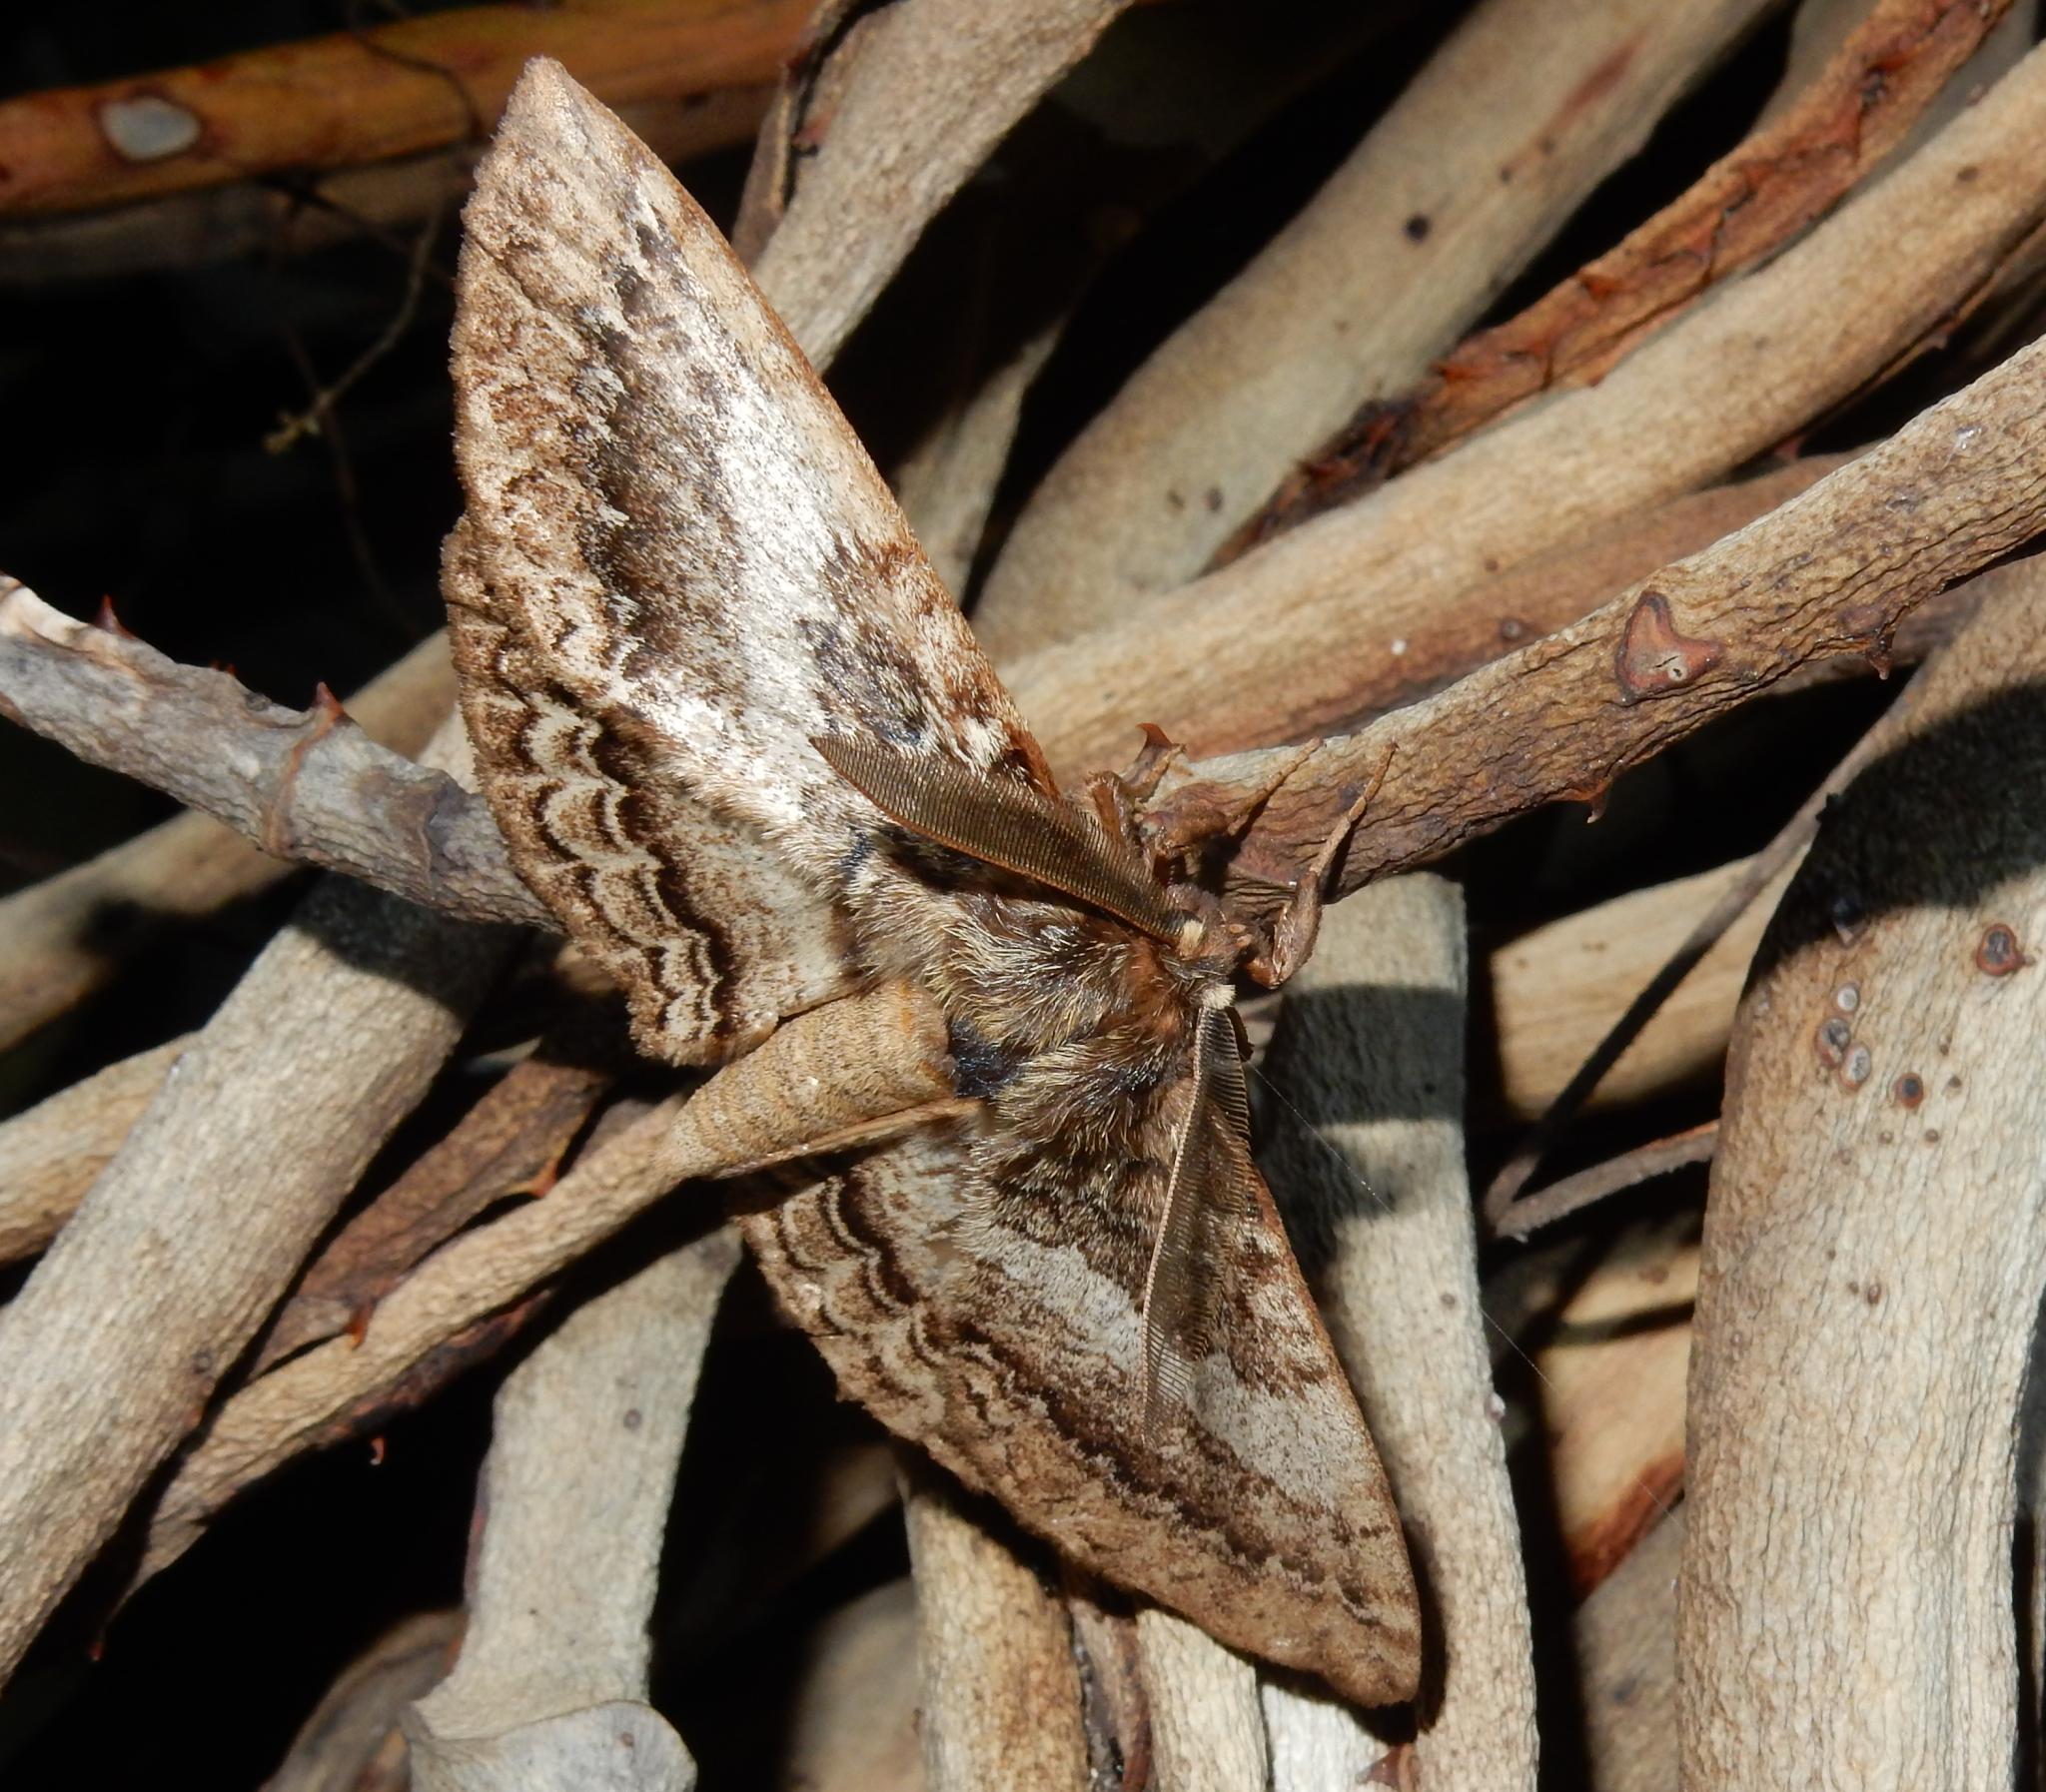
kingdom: Animalia
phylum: Arthropoda
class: Insecta
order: Lepidoptera
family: Eupterotidae
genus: Striphnopteryx
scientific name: Striphnopteryx edulis
